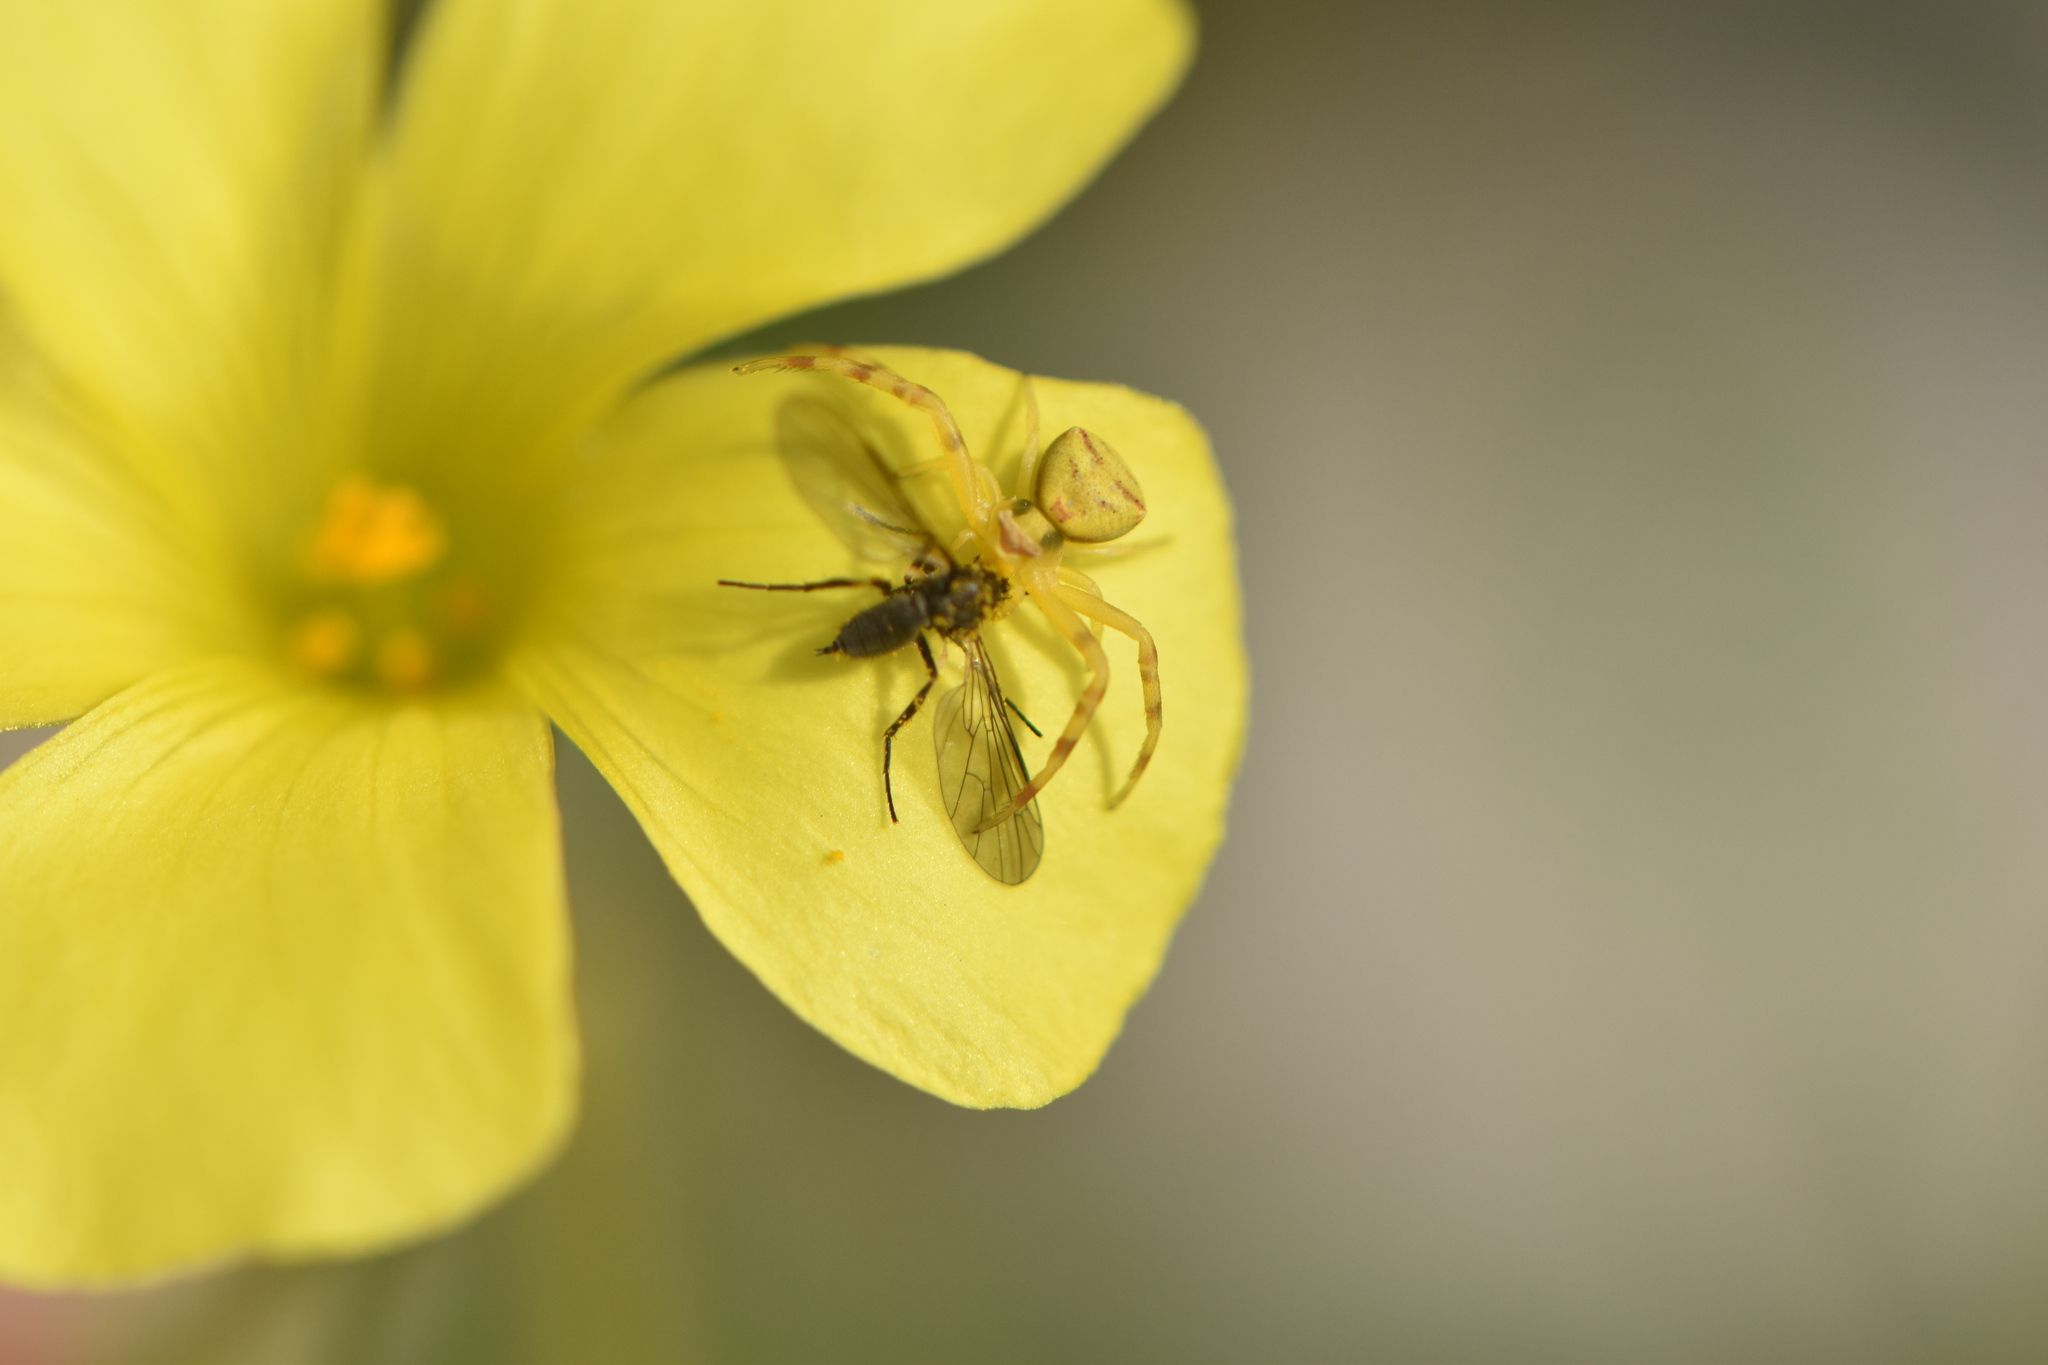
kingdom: Animalia
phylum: Arthropoda
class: Arachnida
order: Araneae
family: Thomisidae
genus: Thomisus
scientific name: Thomisus onustus
